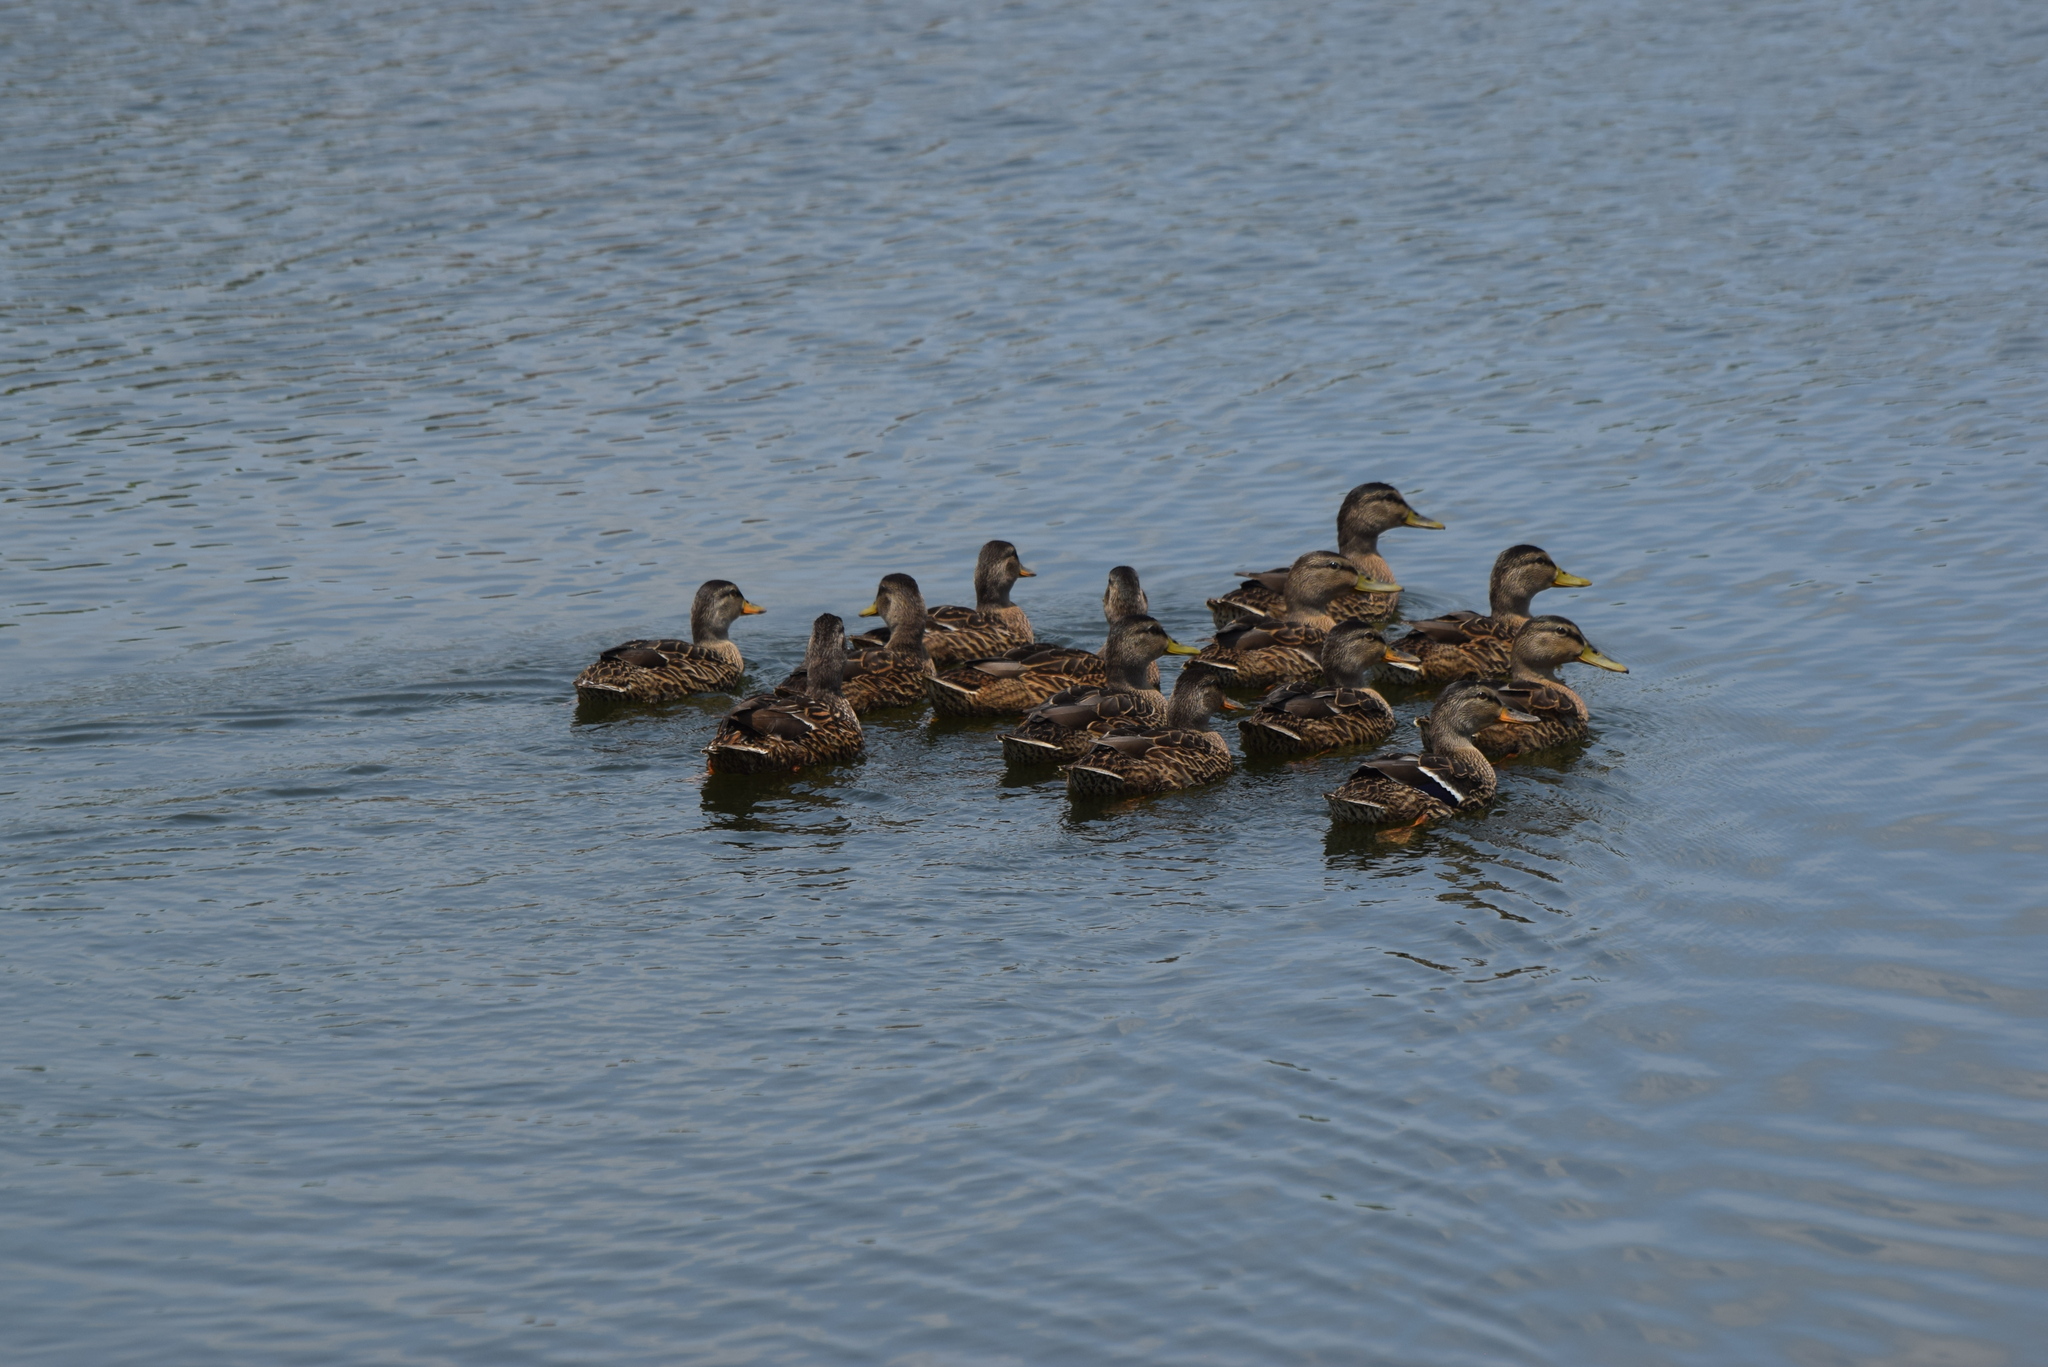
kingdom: Animalia
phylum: Chordata
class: Aves
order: Anseriformes
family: Anatidae
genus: Anas
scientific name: Anas platyrhynchos
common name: Mallard
